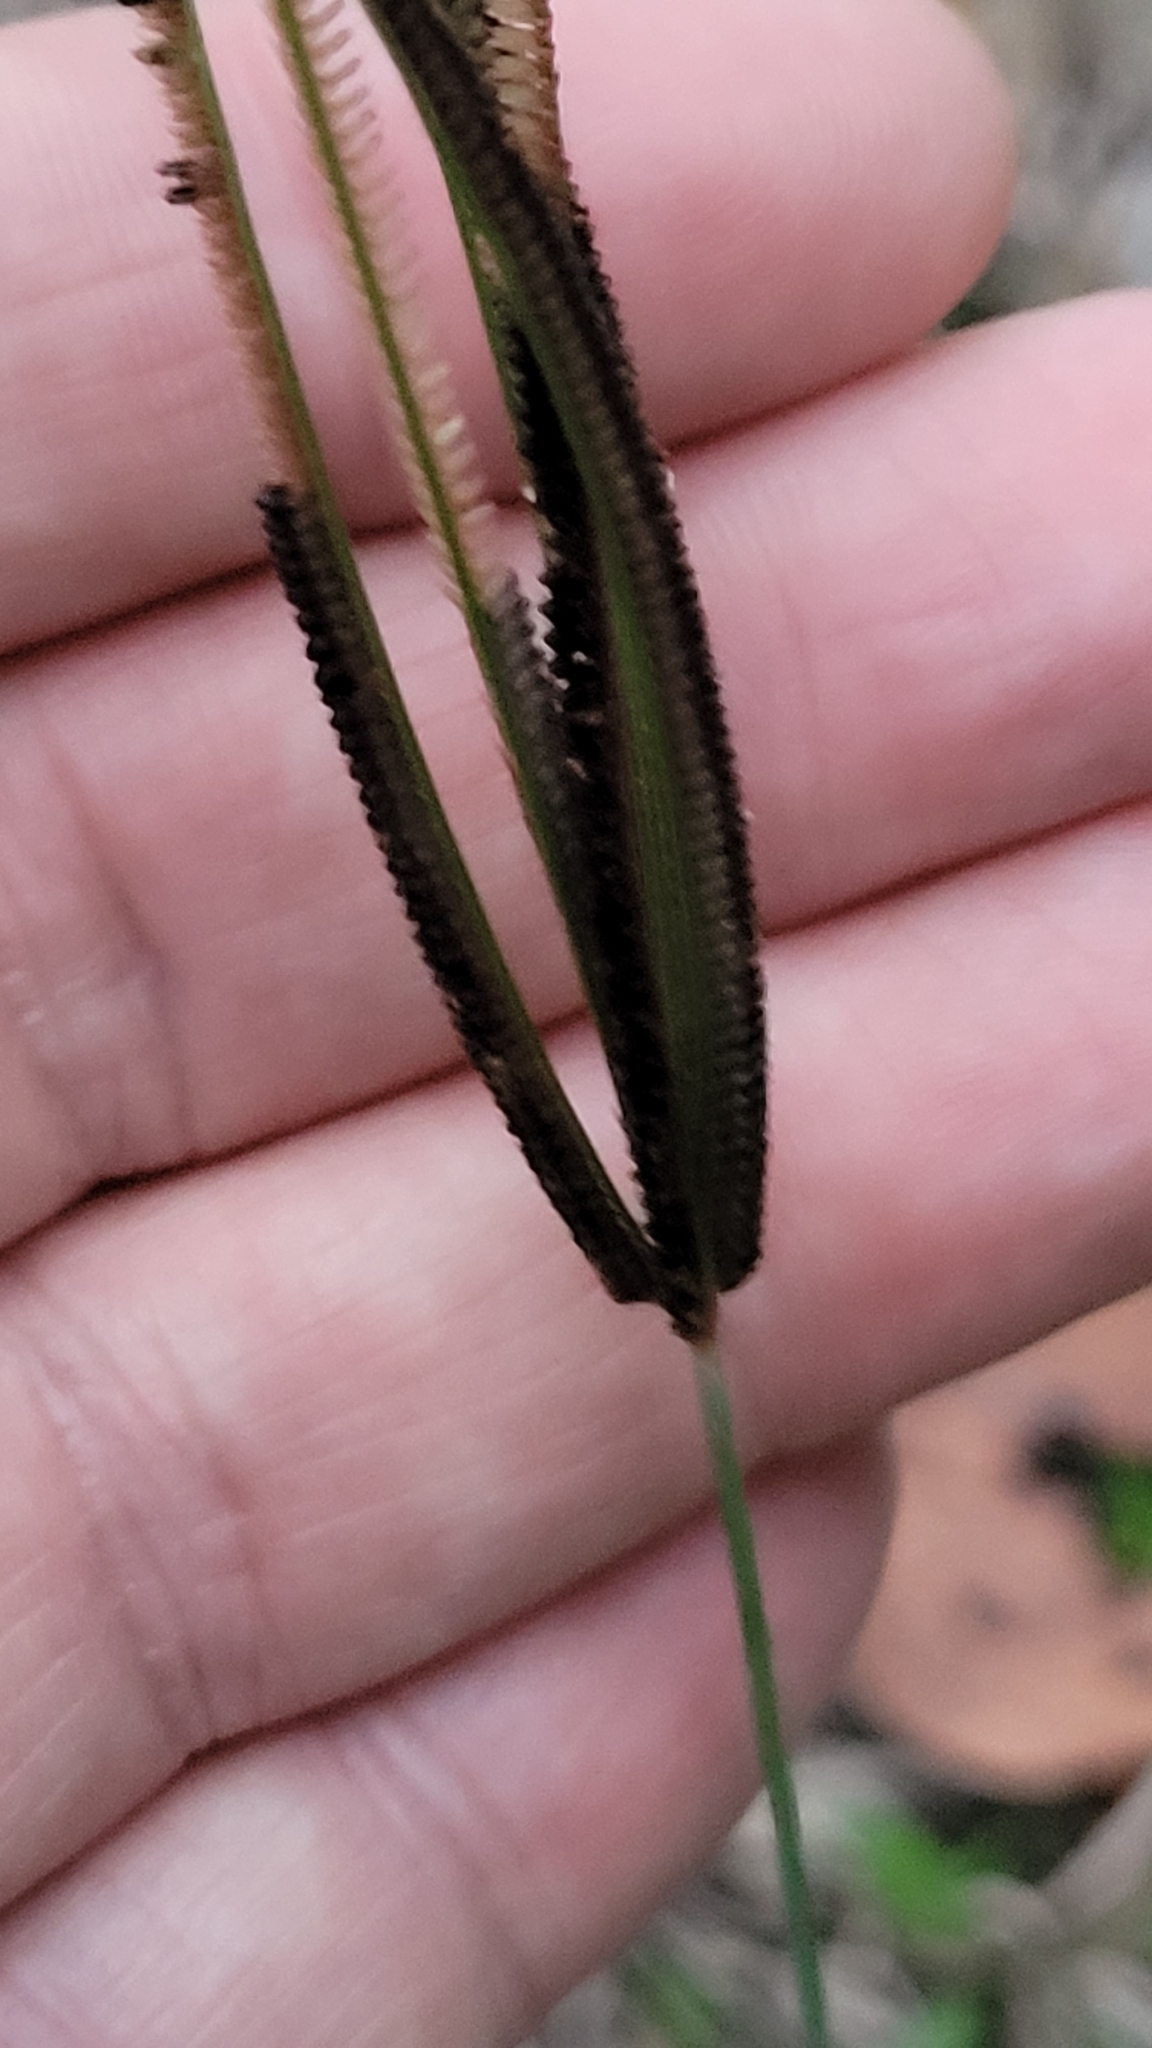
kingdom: Plantae
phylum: Tracheophyta
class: Liliopsida
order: Poales
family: Poaceae
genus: Eustachys
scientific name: Eustachys petraea
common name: Pinewoods fingergrass
